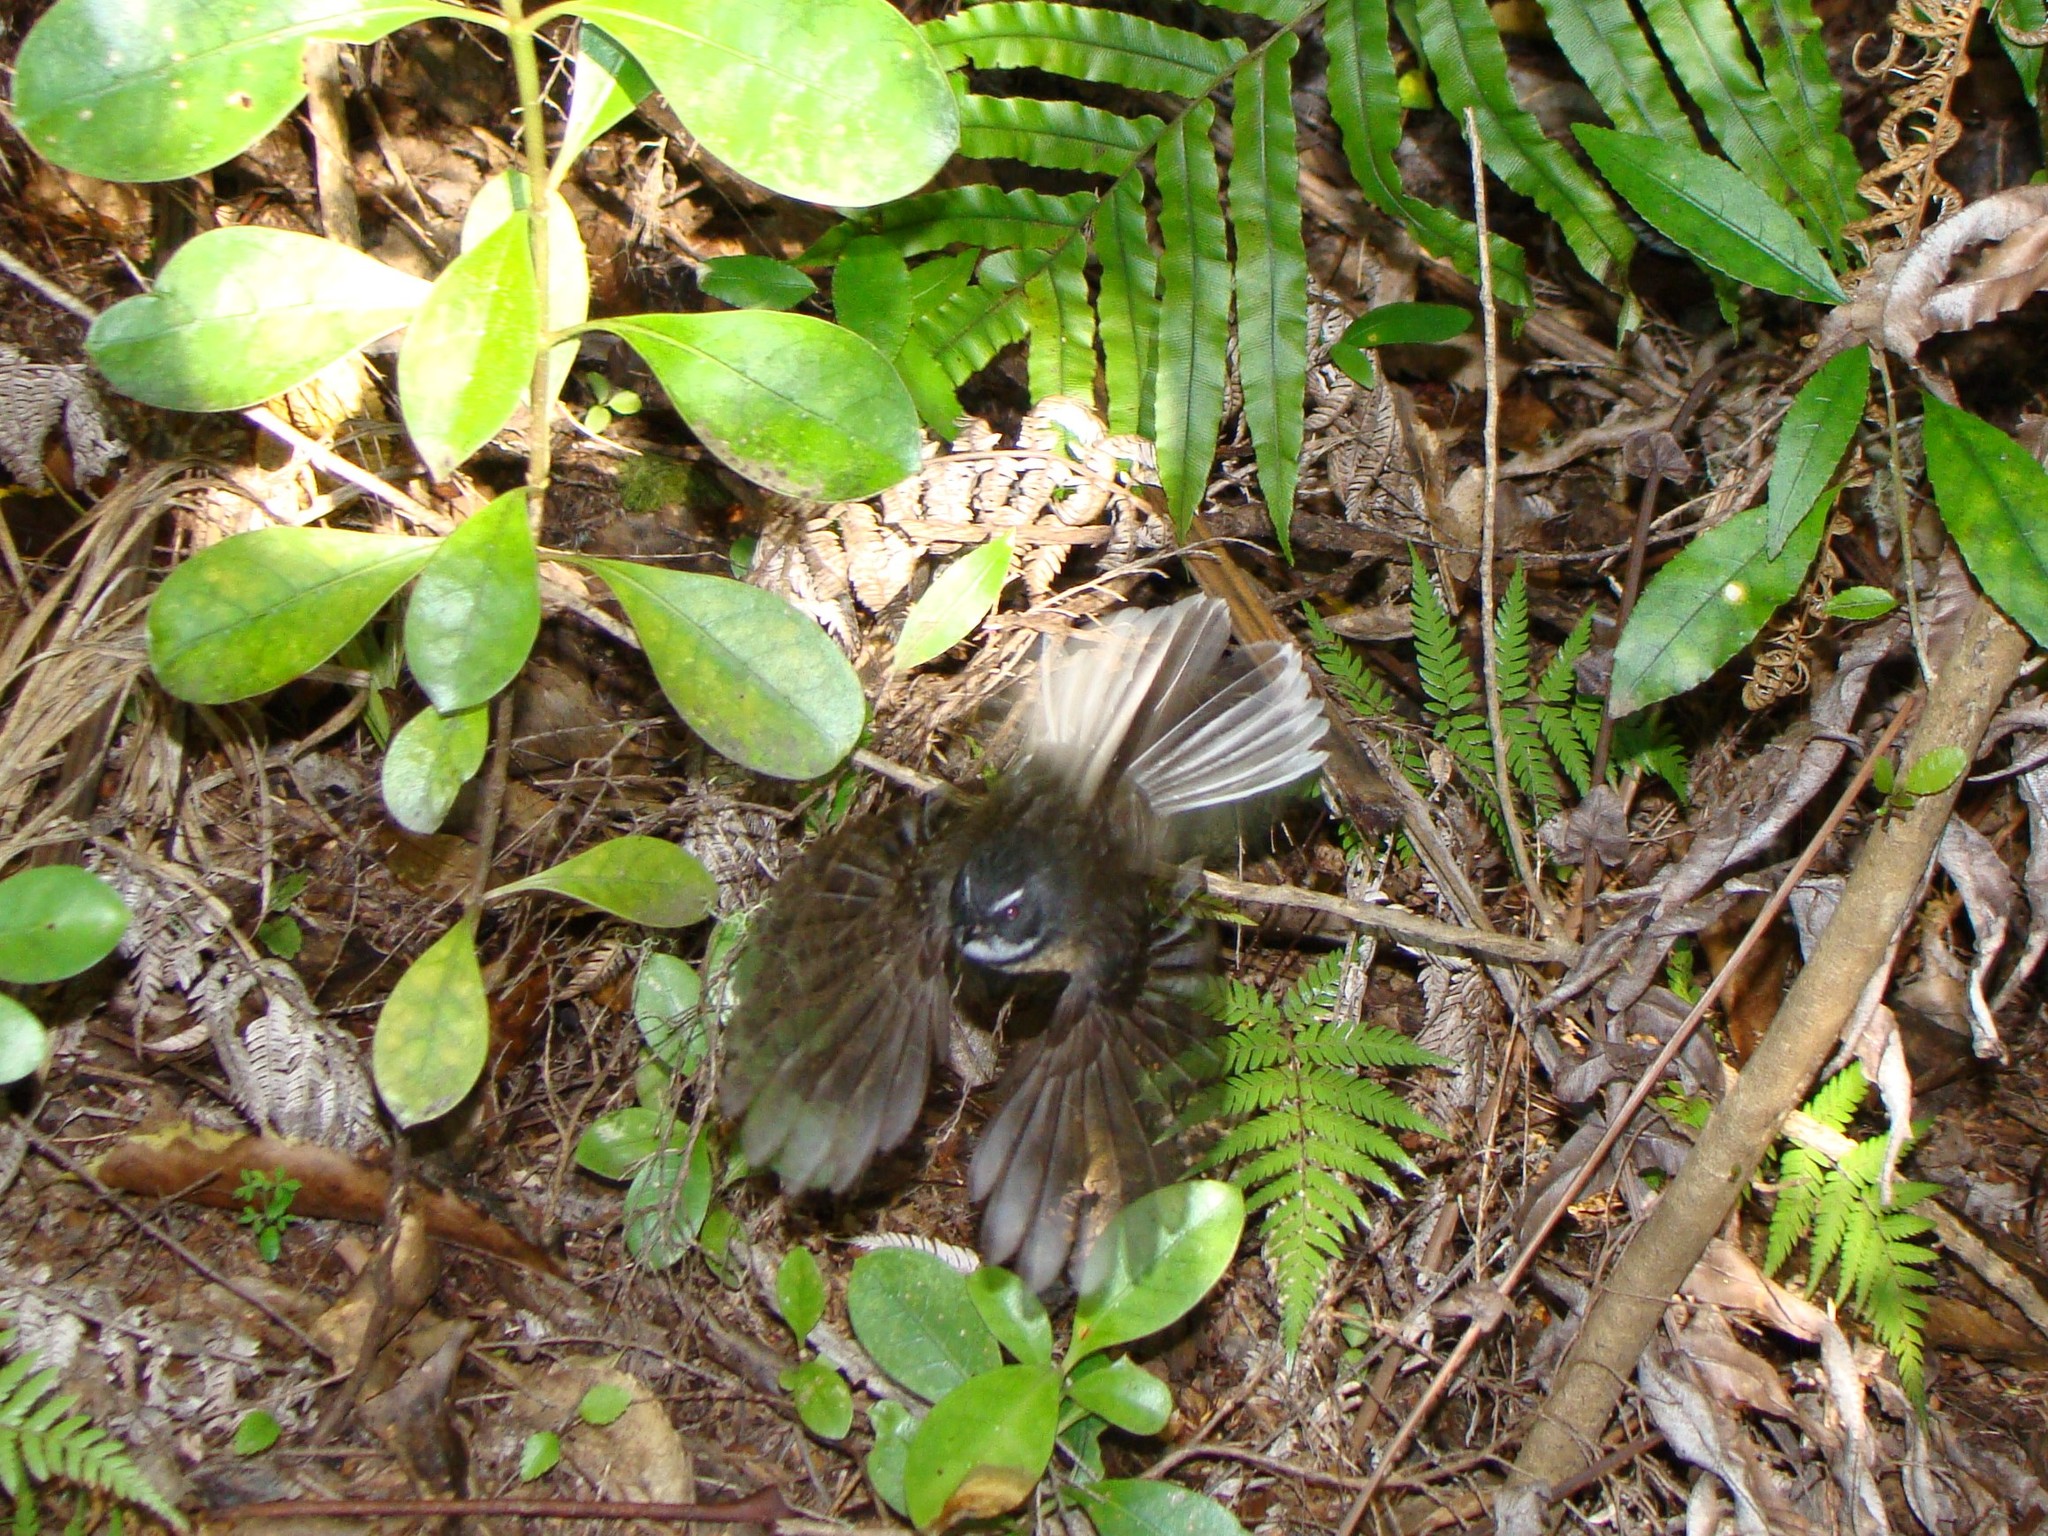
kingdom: Animalia
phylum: Chordata
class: Aves
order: Passeriformes
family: Rhipiduridae
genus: Rhipidura
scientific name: Rhipidura fuliginosa
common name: New zealand fantail
